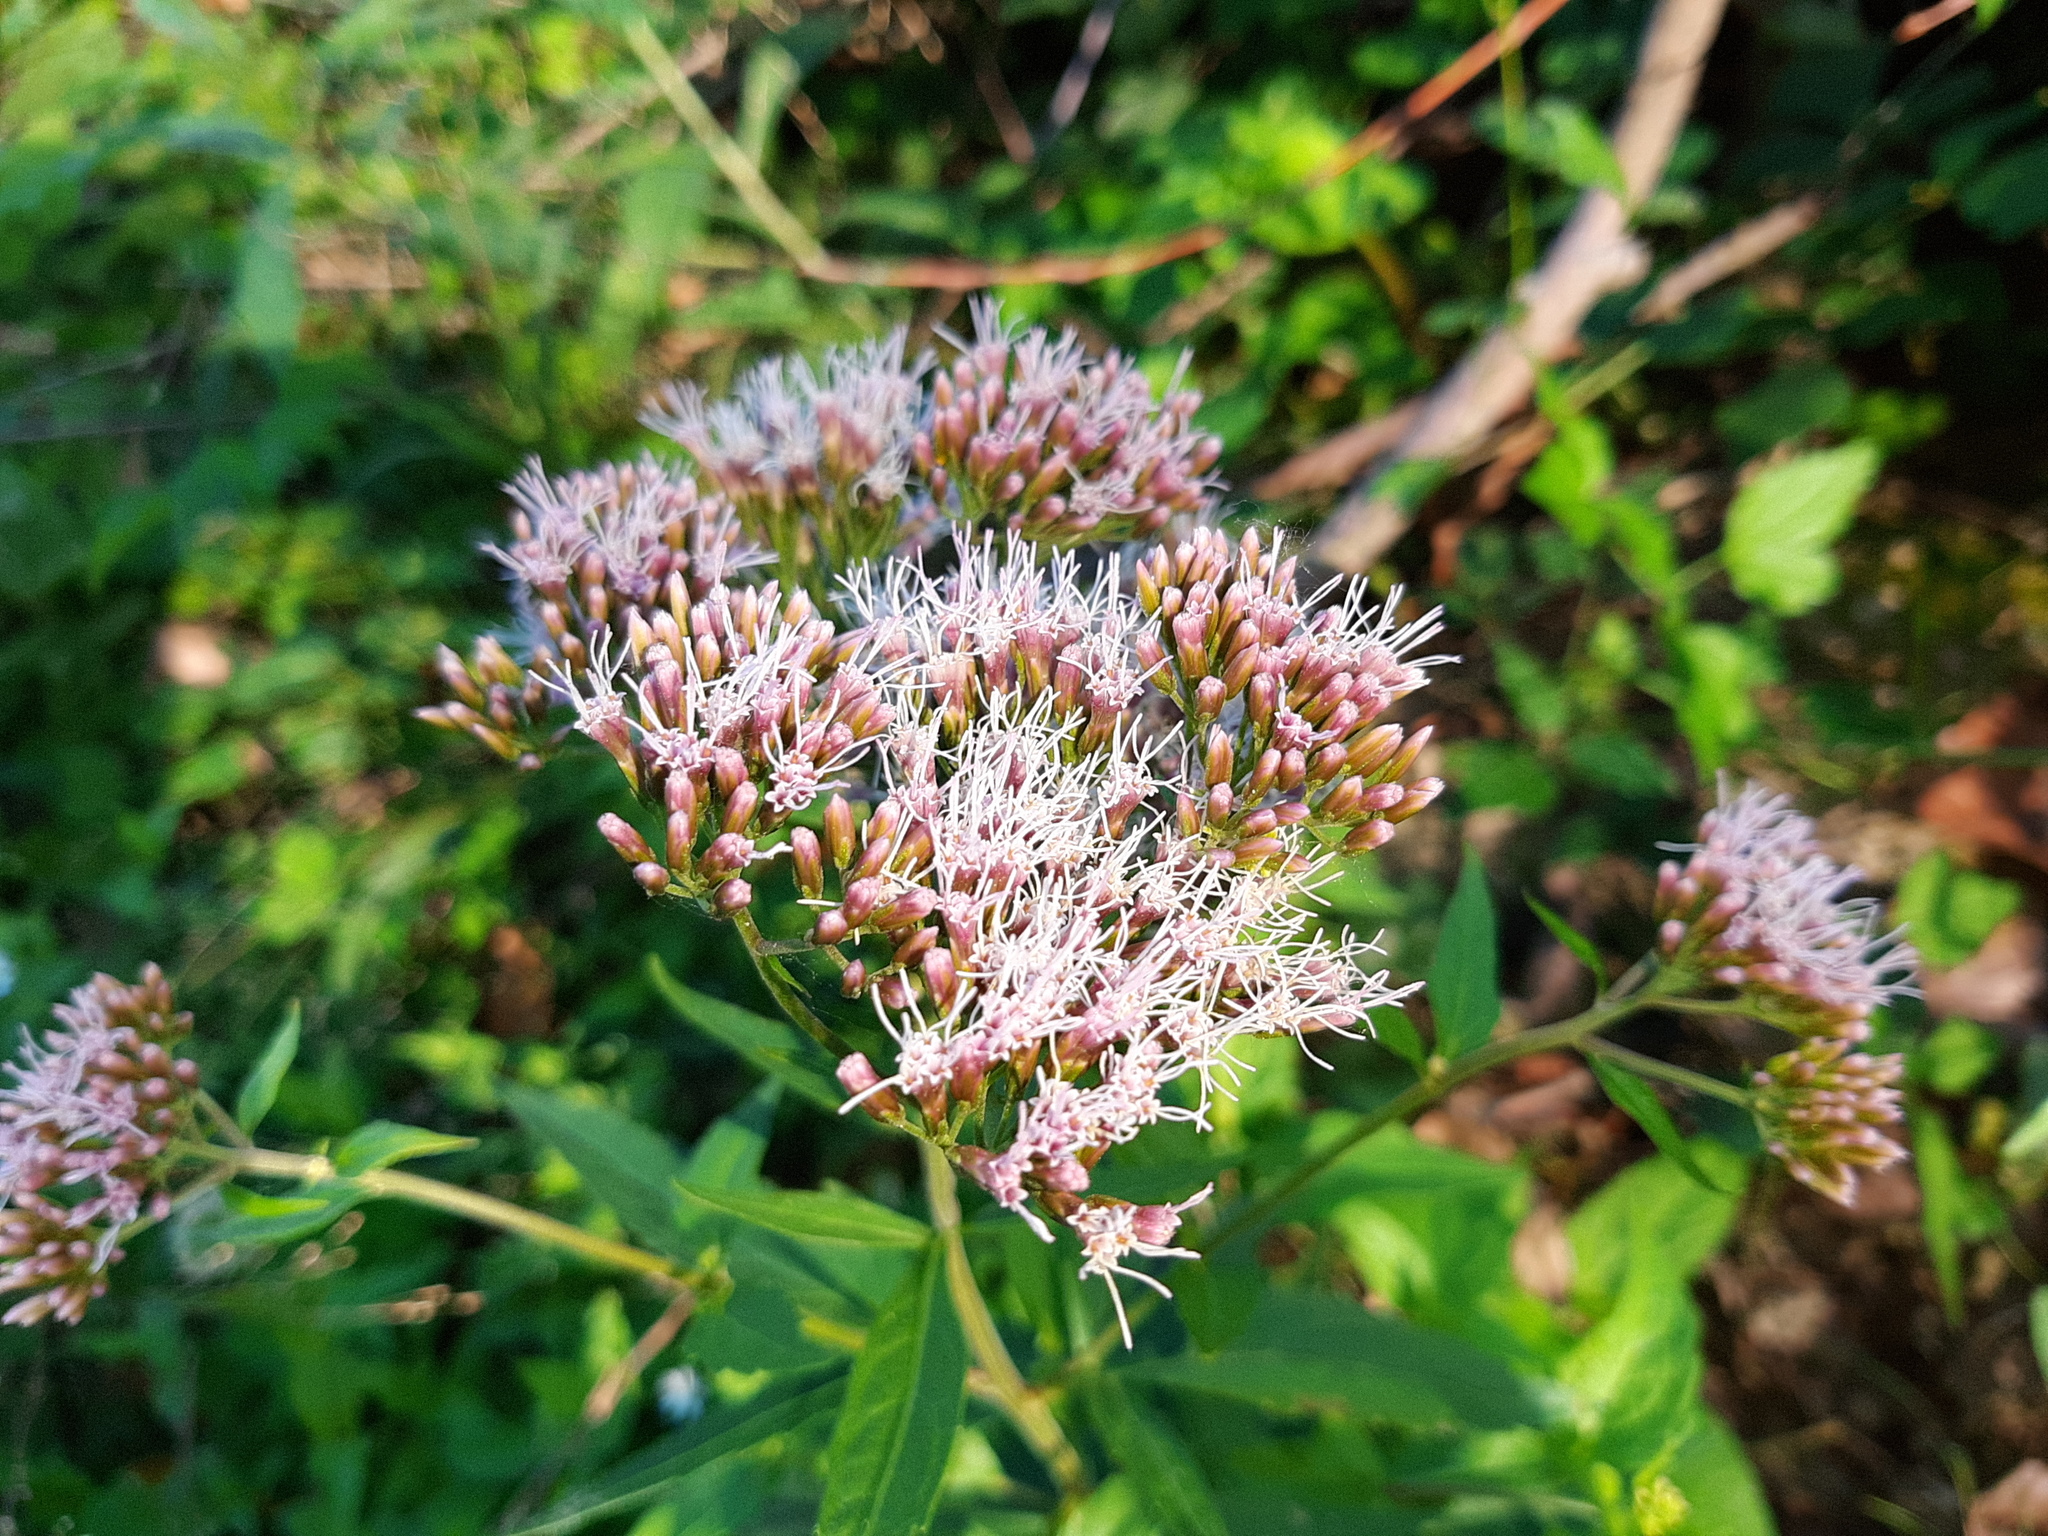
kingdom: Plantae
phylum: Tracheophyta
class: Magnoliopsida
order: Asterales
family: Asteraceae
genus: Eupatorium
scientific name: Eupatorium cannabinum
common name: Hemp-agrimony
